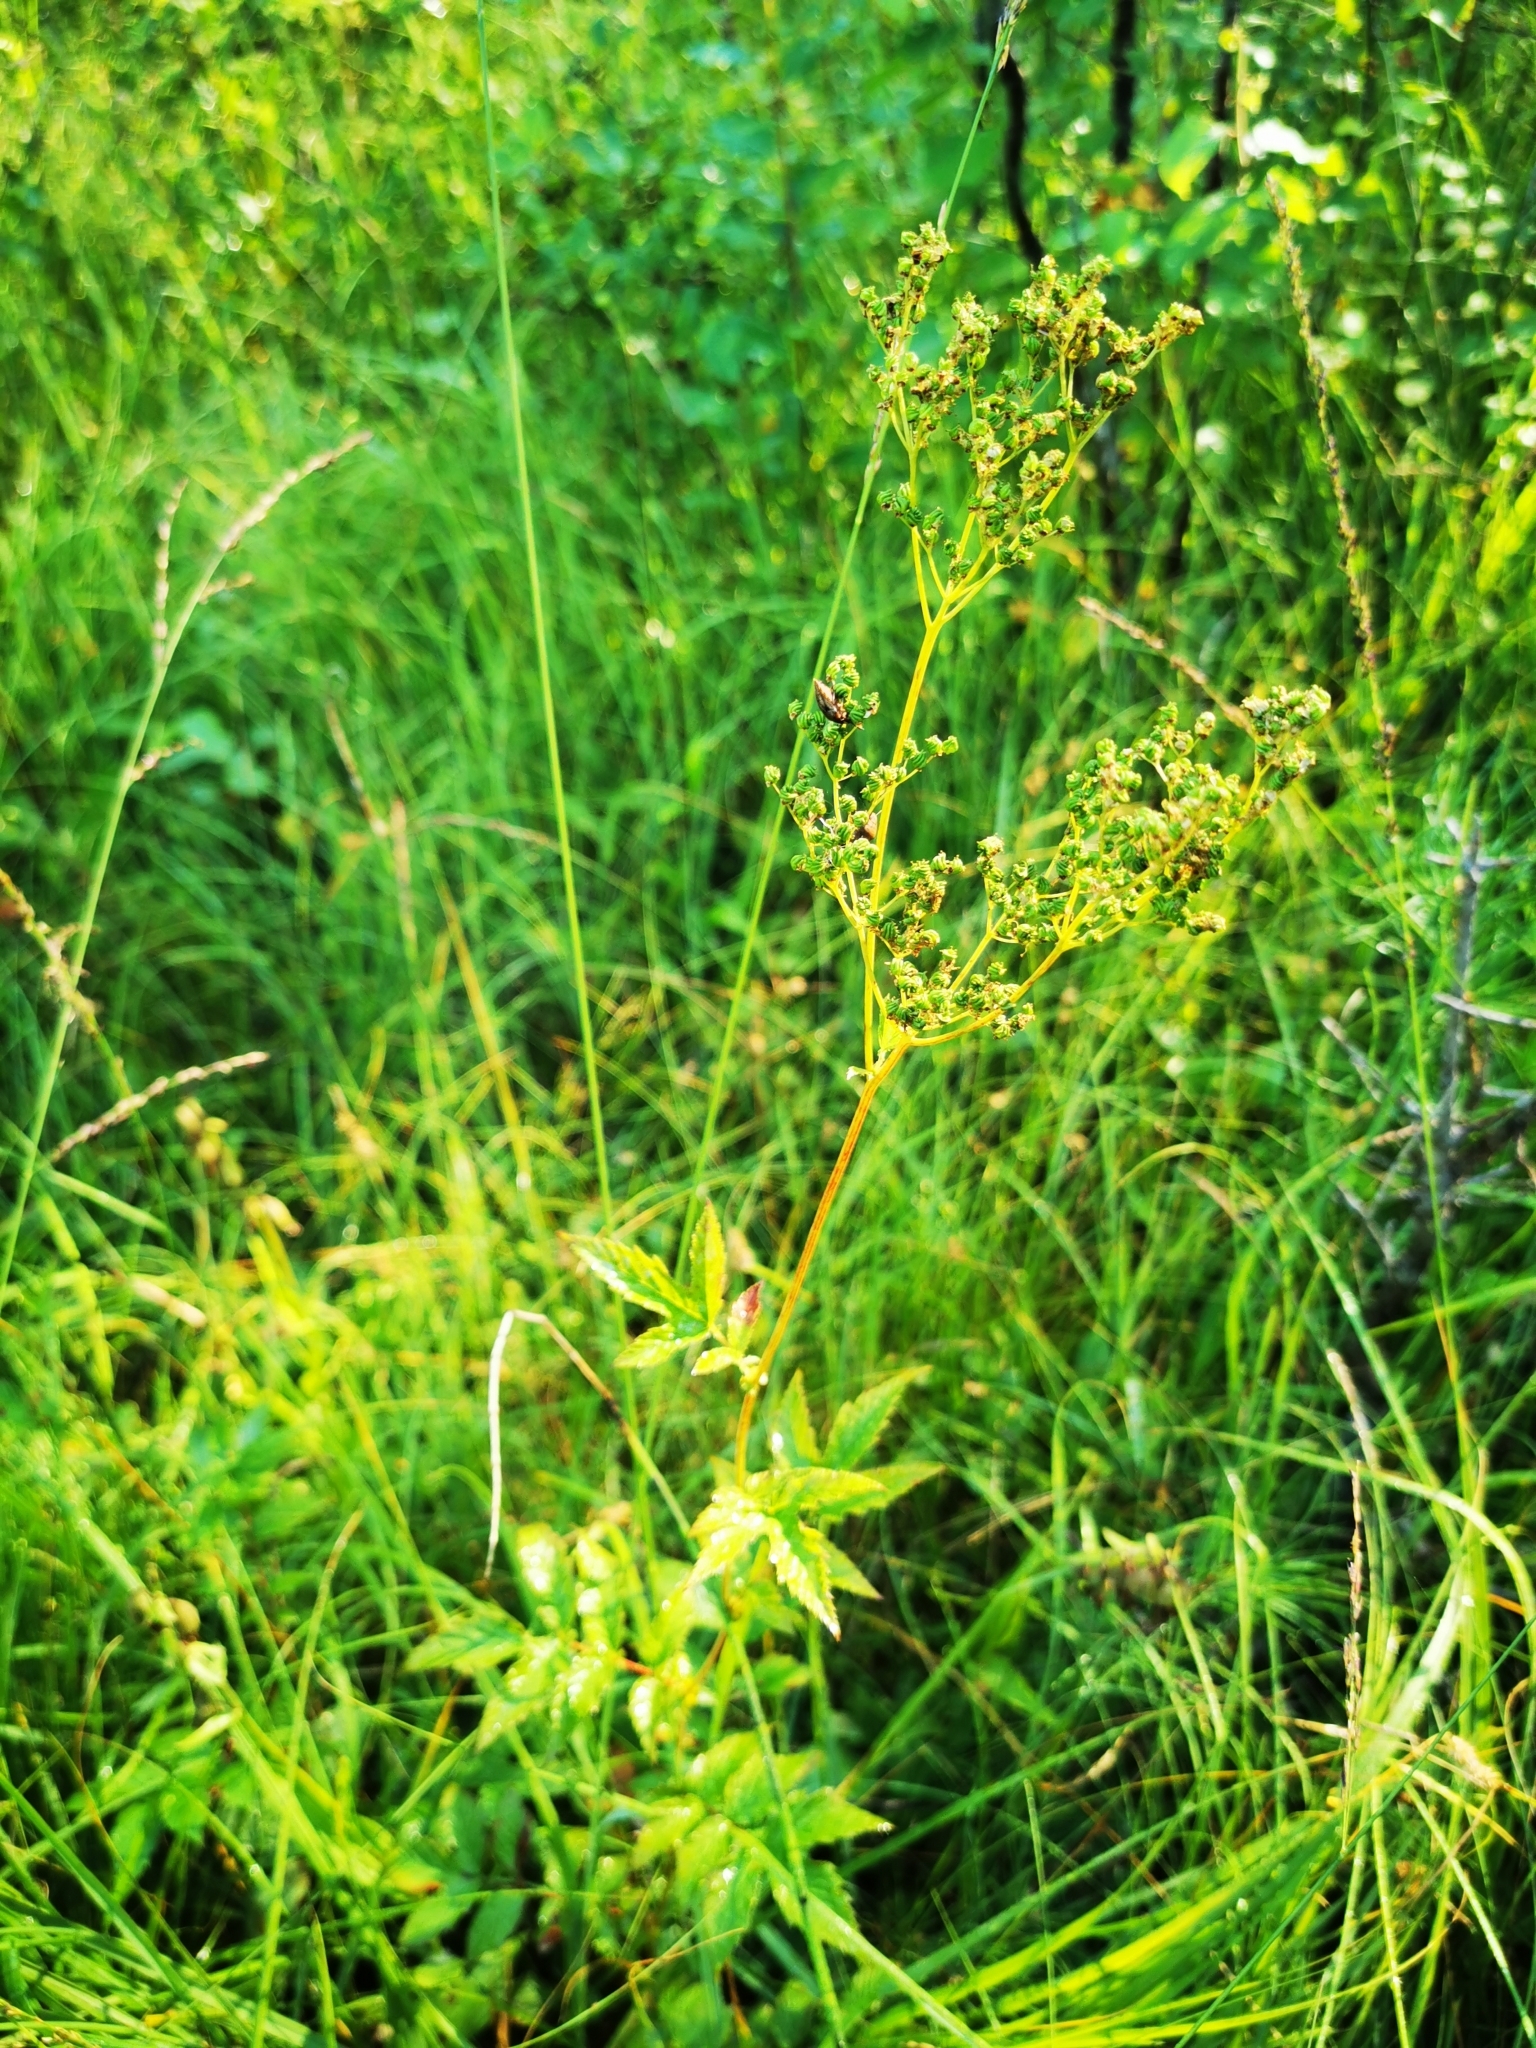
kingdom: Plantae
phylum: Tracheophyta
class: Magnoliopsida
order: Rosales
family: Rosaceae
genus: Filipendula
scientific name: Filipendula ulmaria
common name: Meadowsweet
